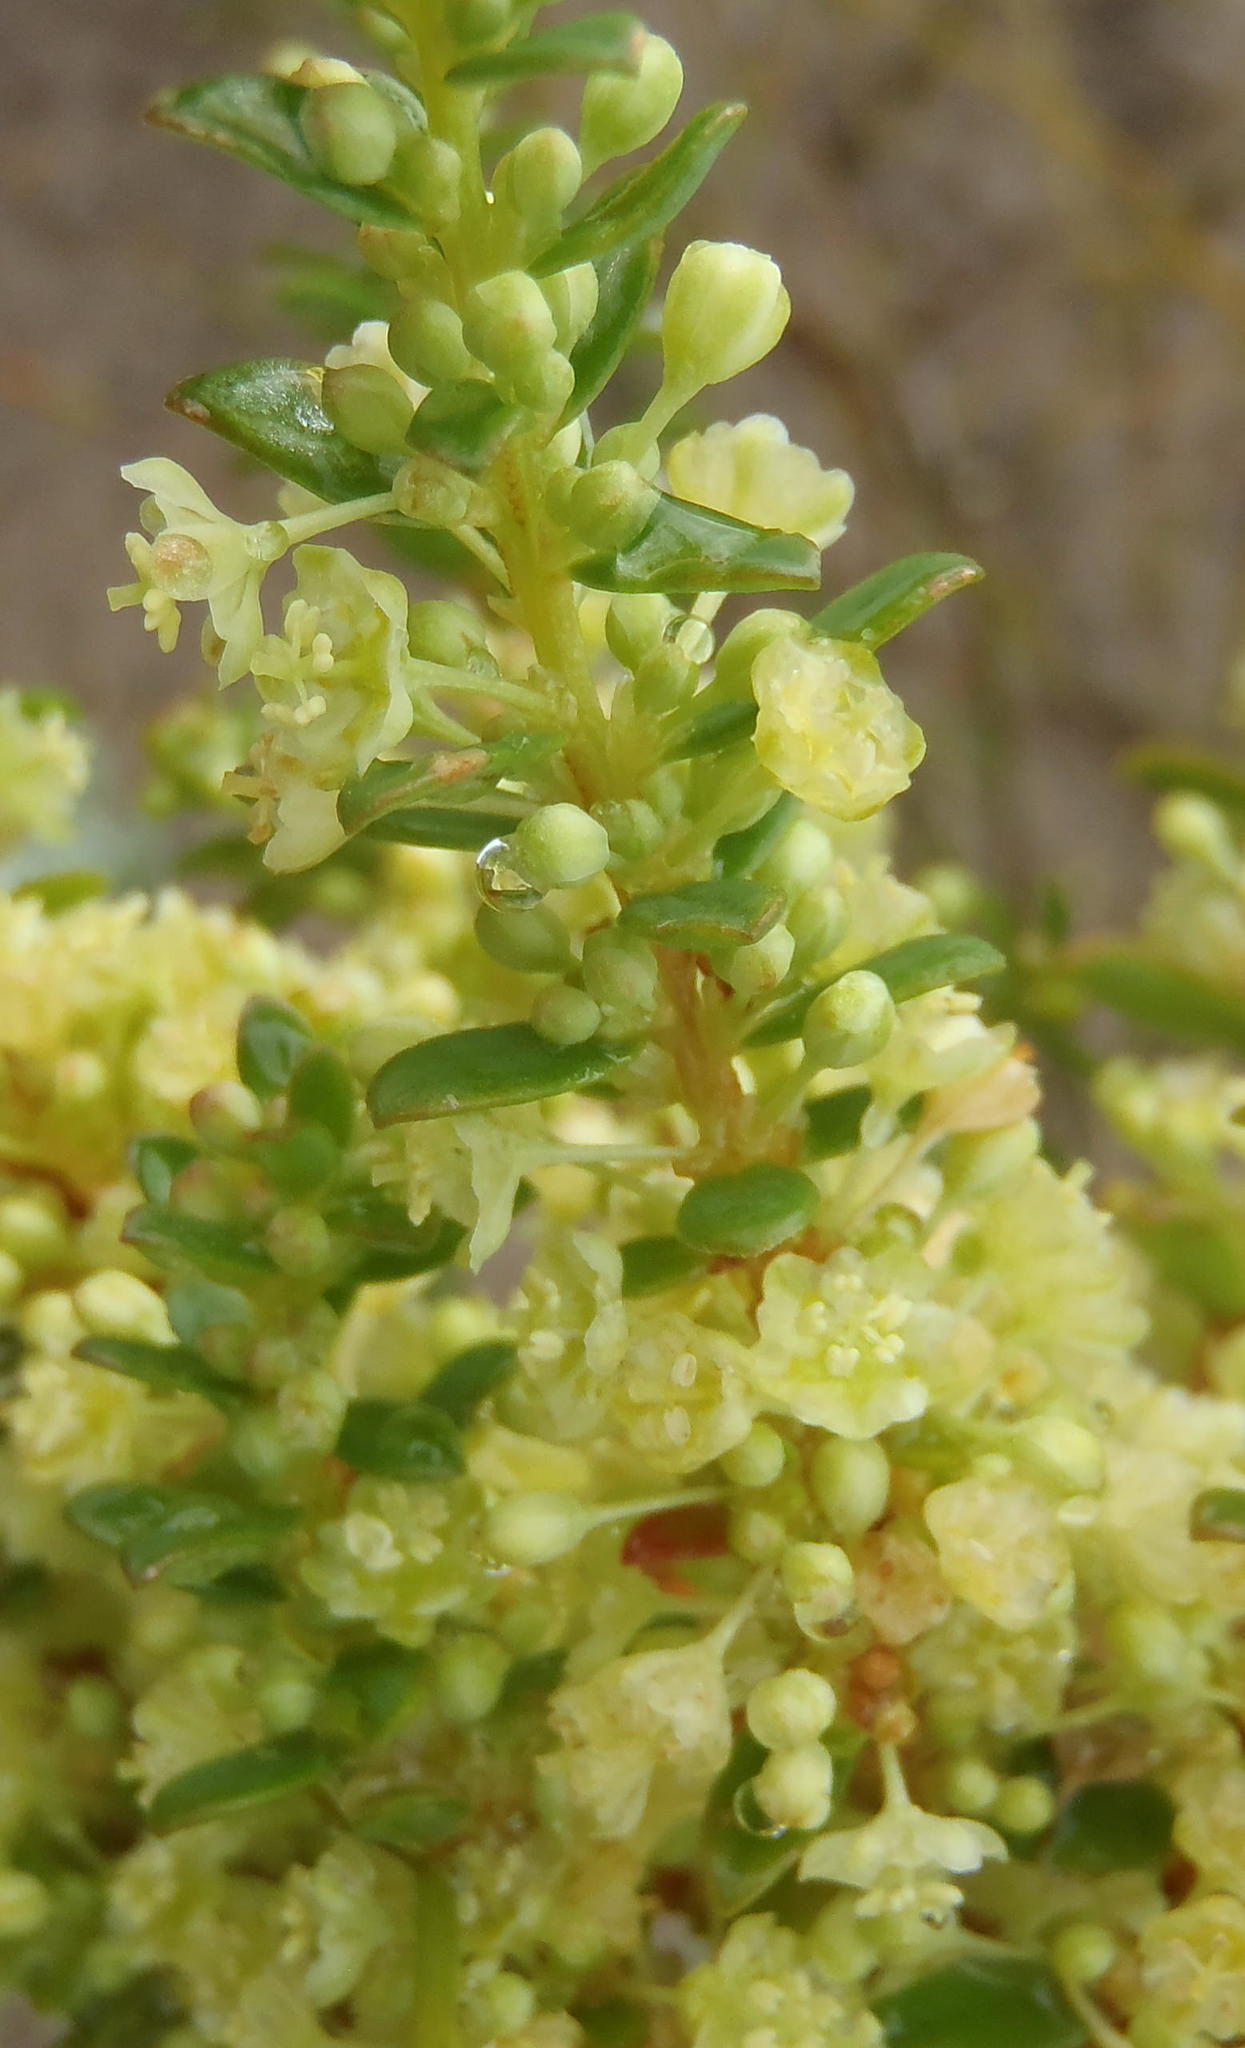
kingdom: Plantae
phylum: Tracheophyta
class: Magnoliopsida
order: Malpighiales
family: Peraceae
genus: Clutia
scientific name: Clutia laxa
